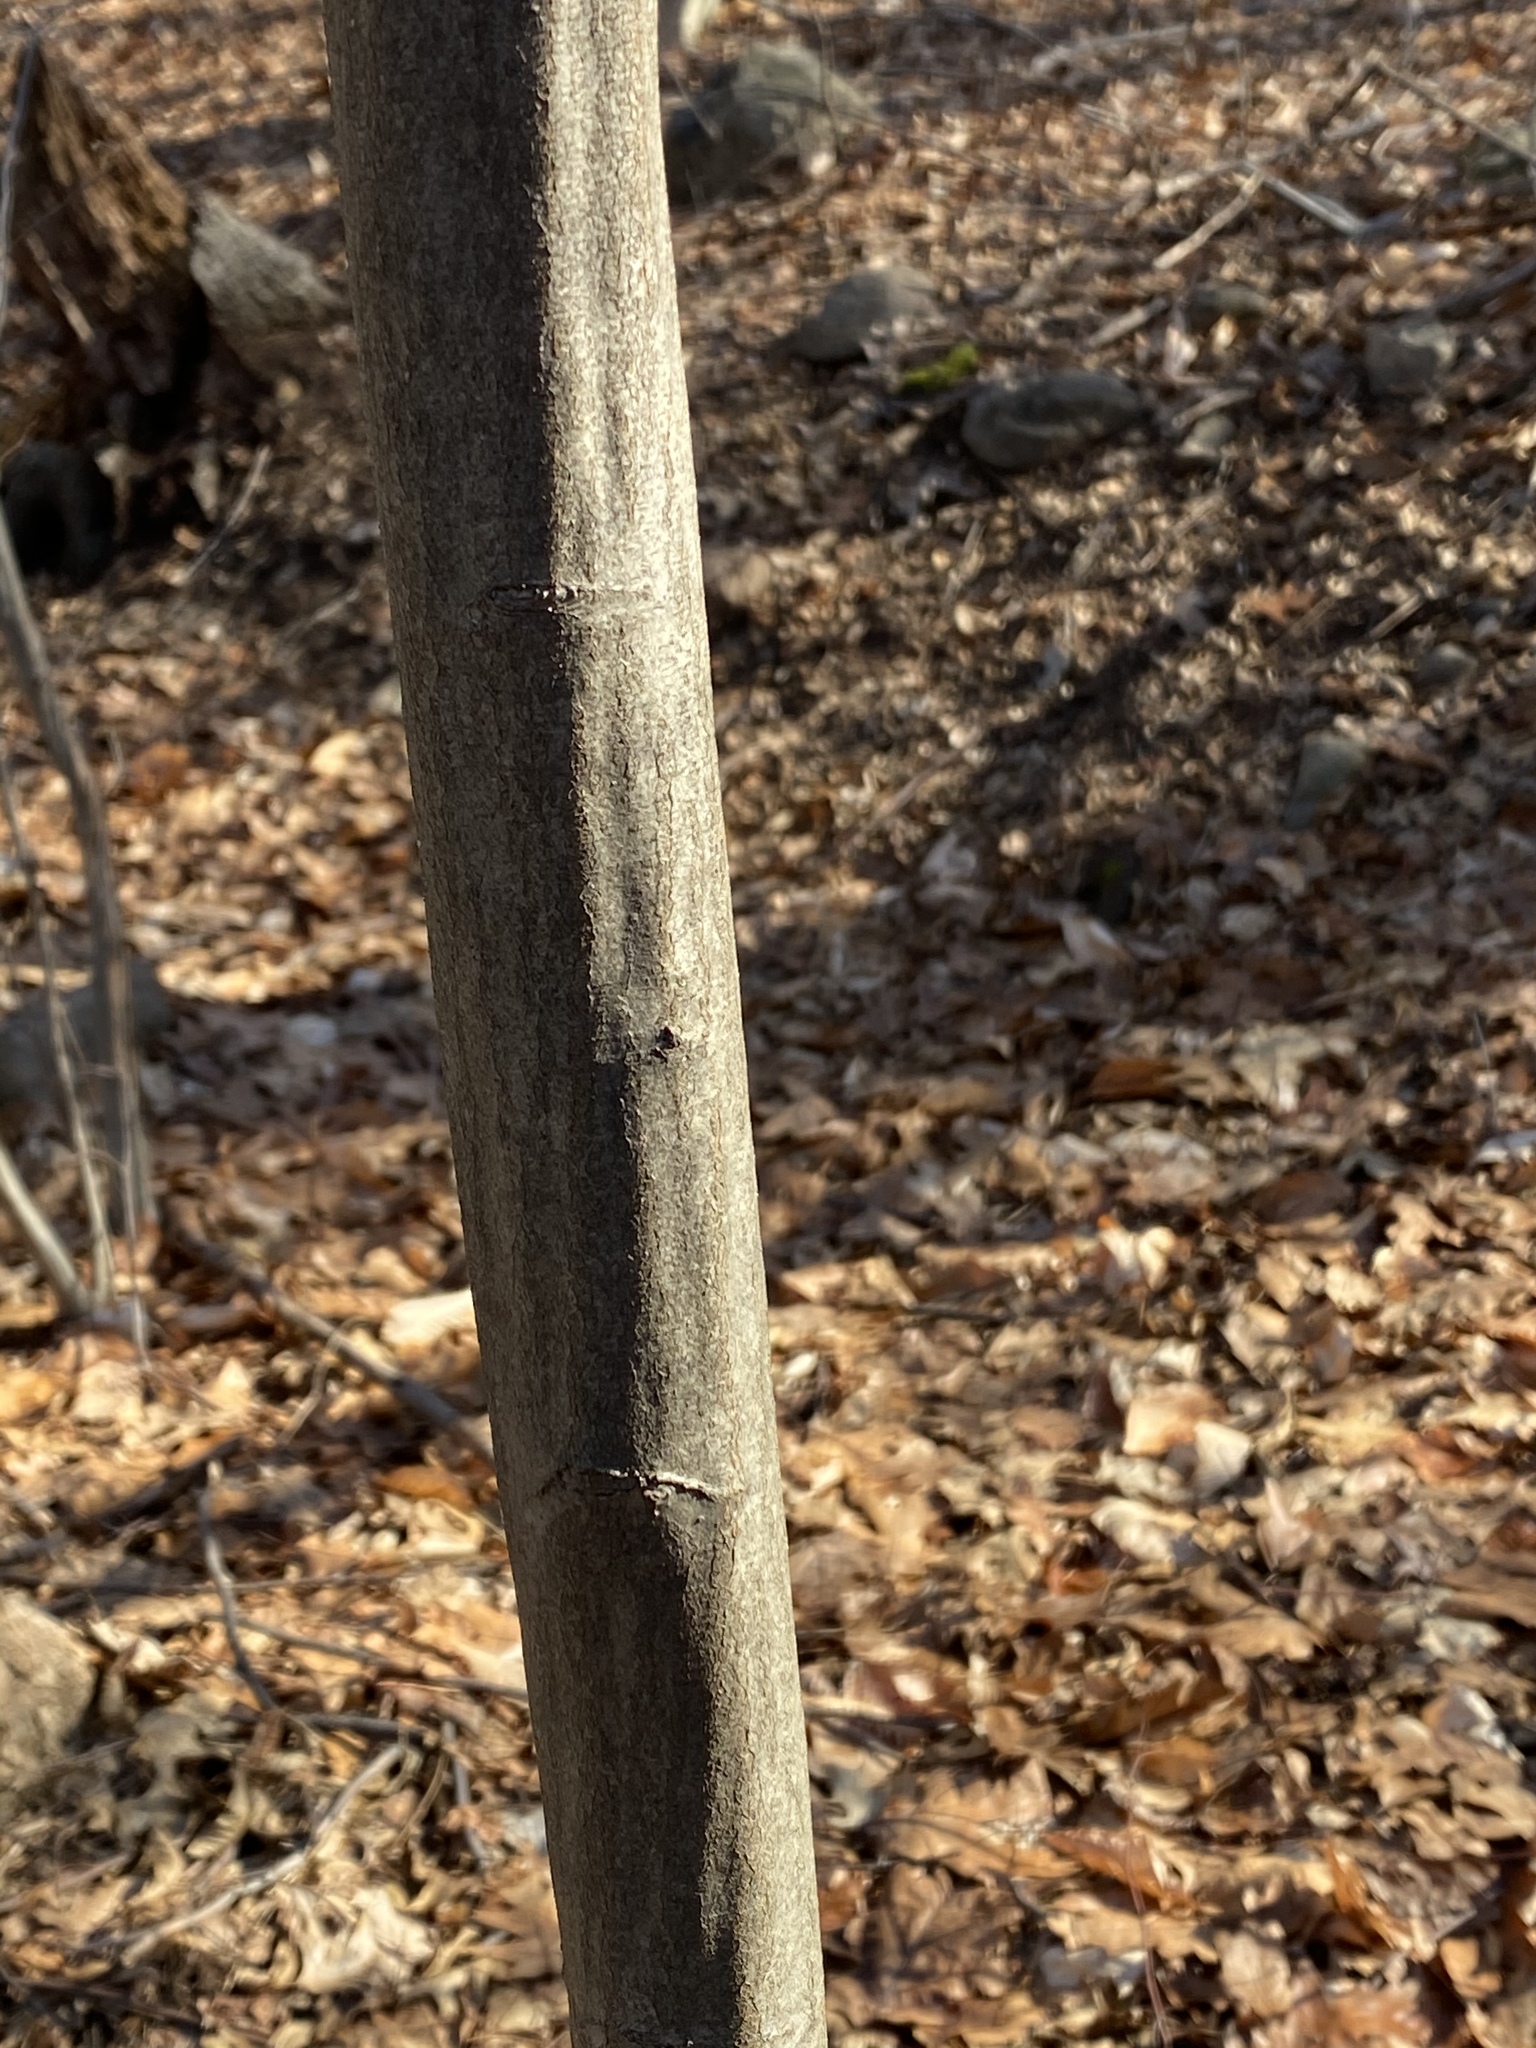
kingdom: Plantae
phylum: Tracheophyta
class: Magnoliopsida
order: Fagales
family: Betulaceae
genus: Carpinus
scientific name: Carpinus caroliniana
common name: American hornbeam
